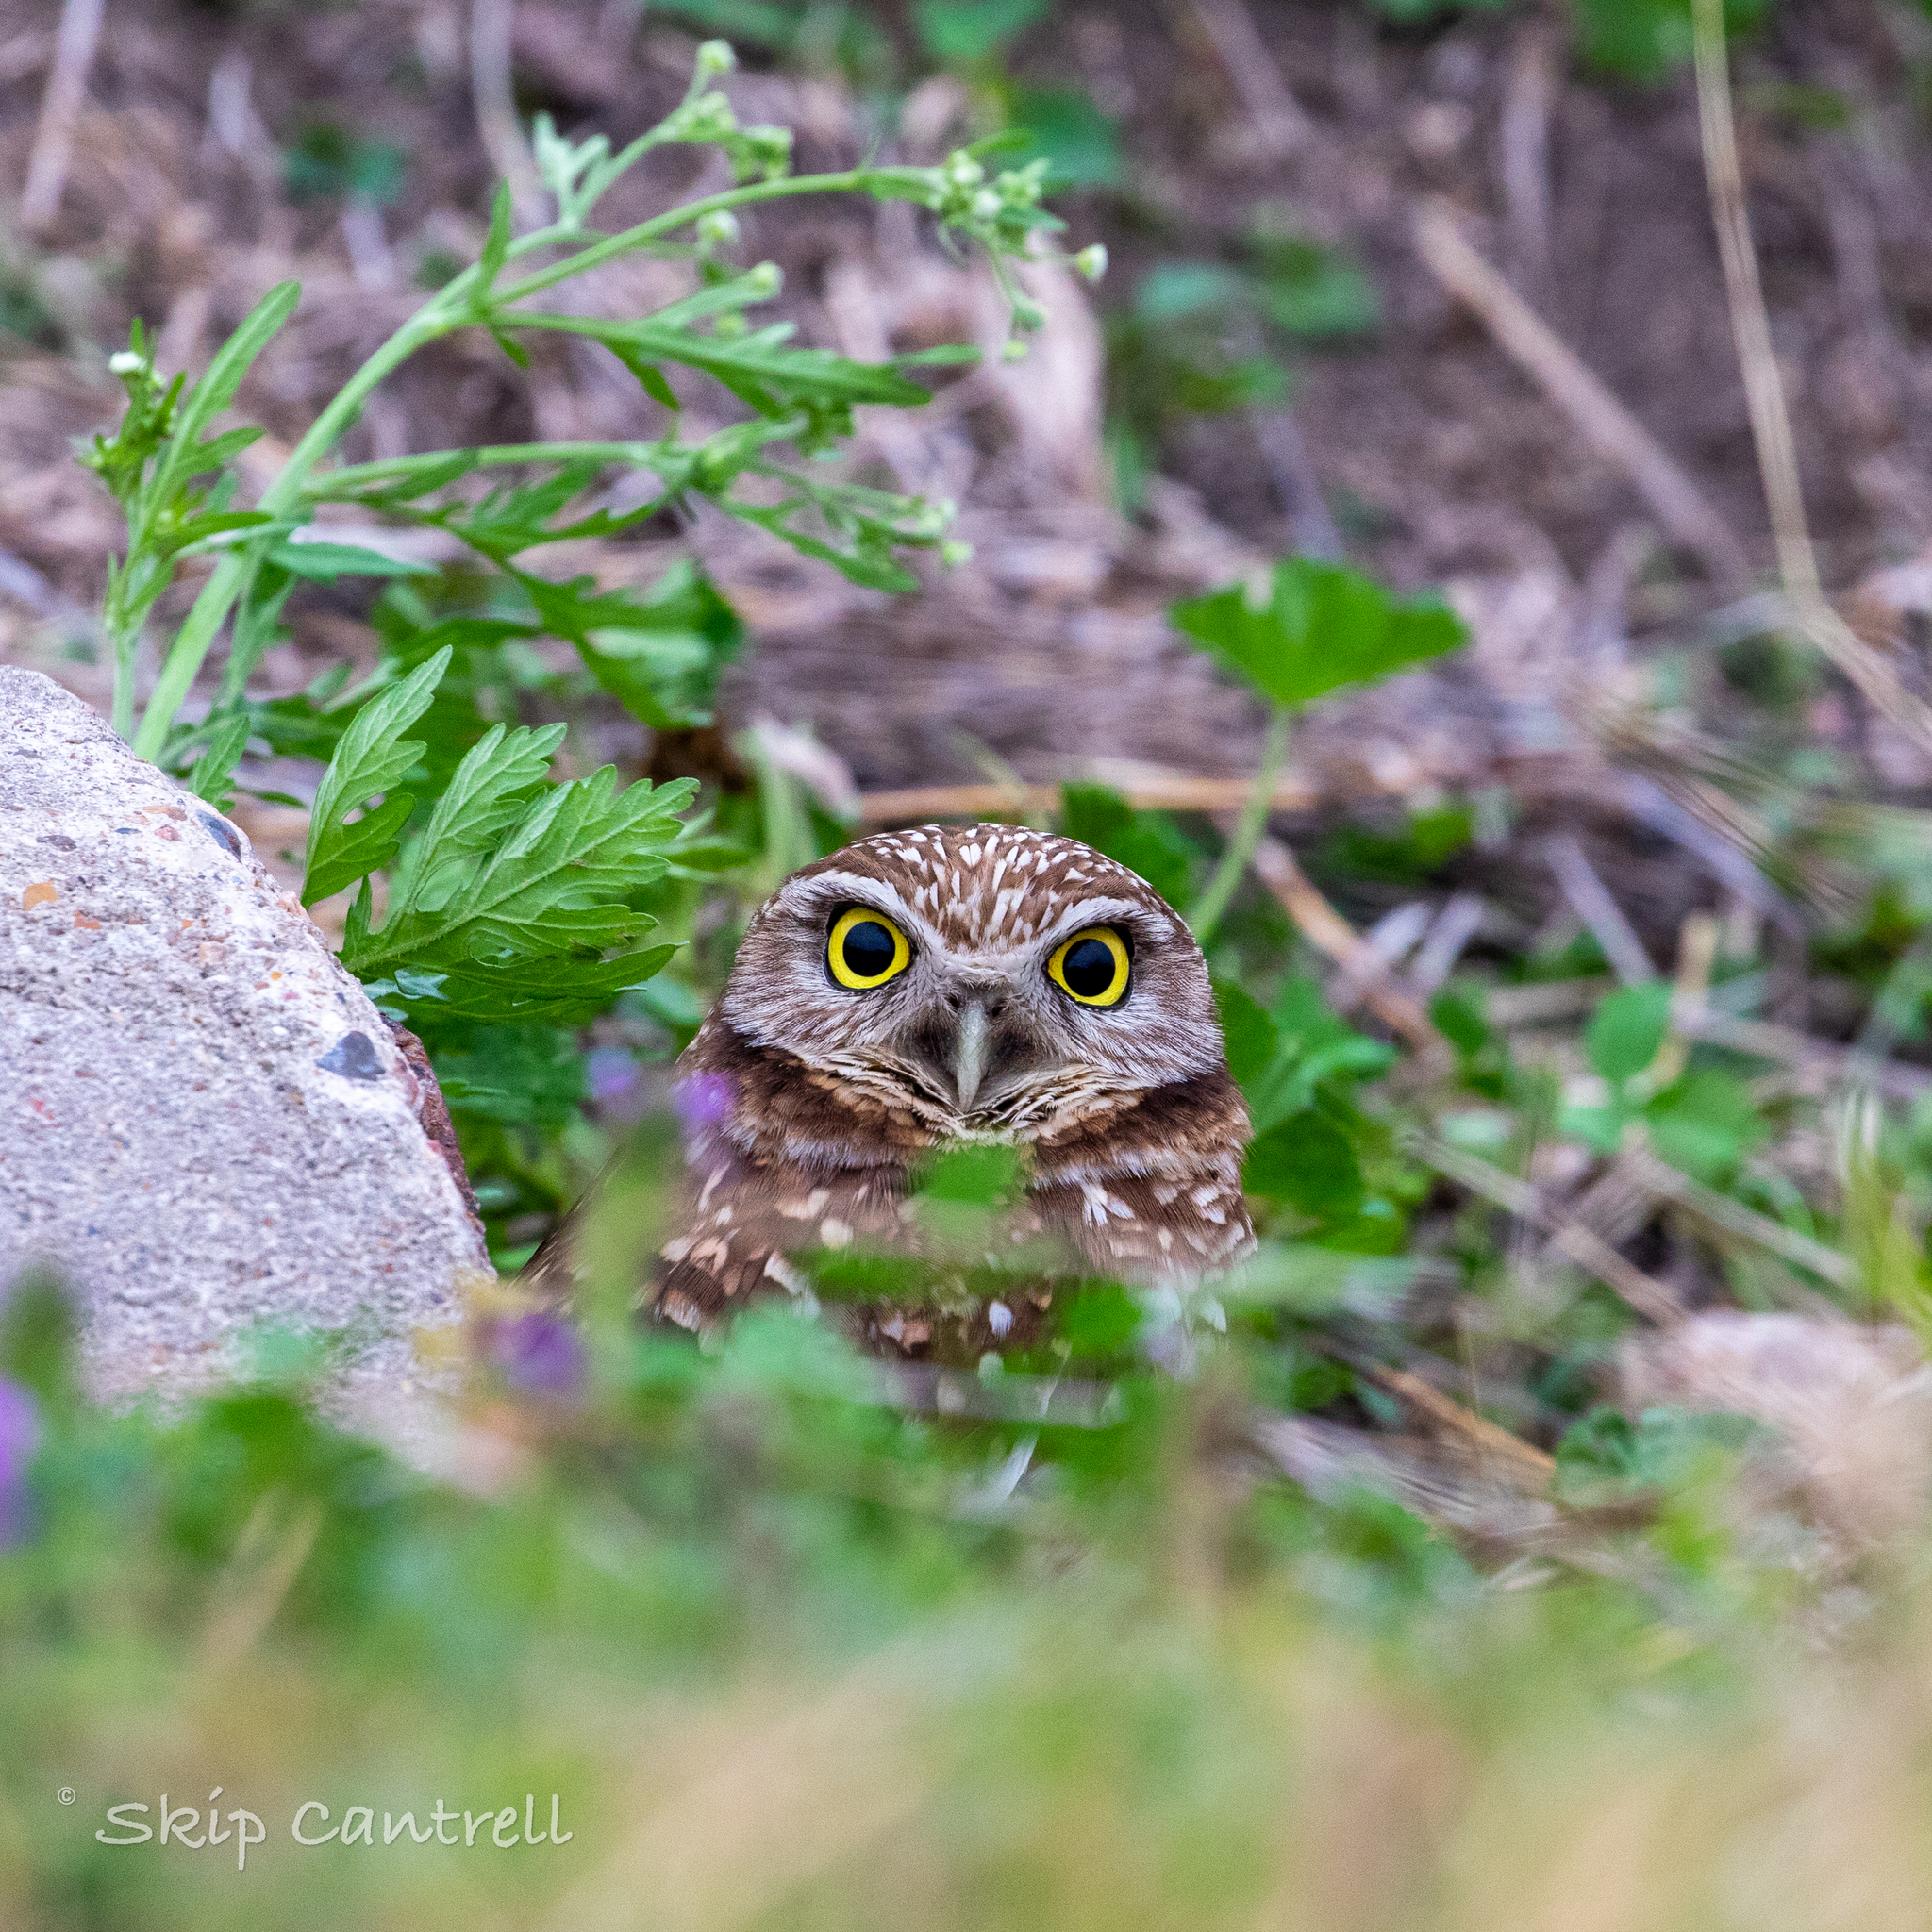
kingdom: Animalia
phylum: Chordata
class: Aves
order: Strigiformes
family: Strigidae
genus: Athene
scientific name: Athene cunicularia
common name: Burrowing owl
